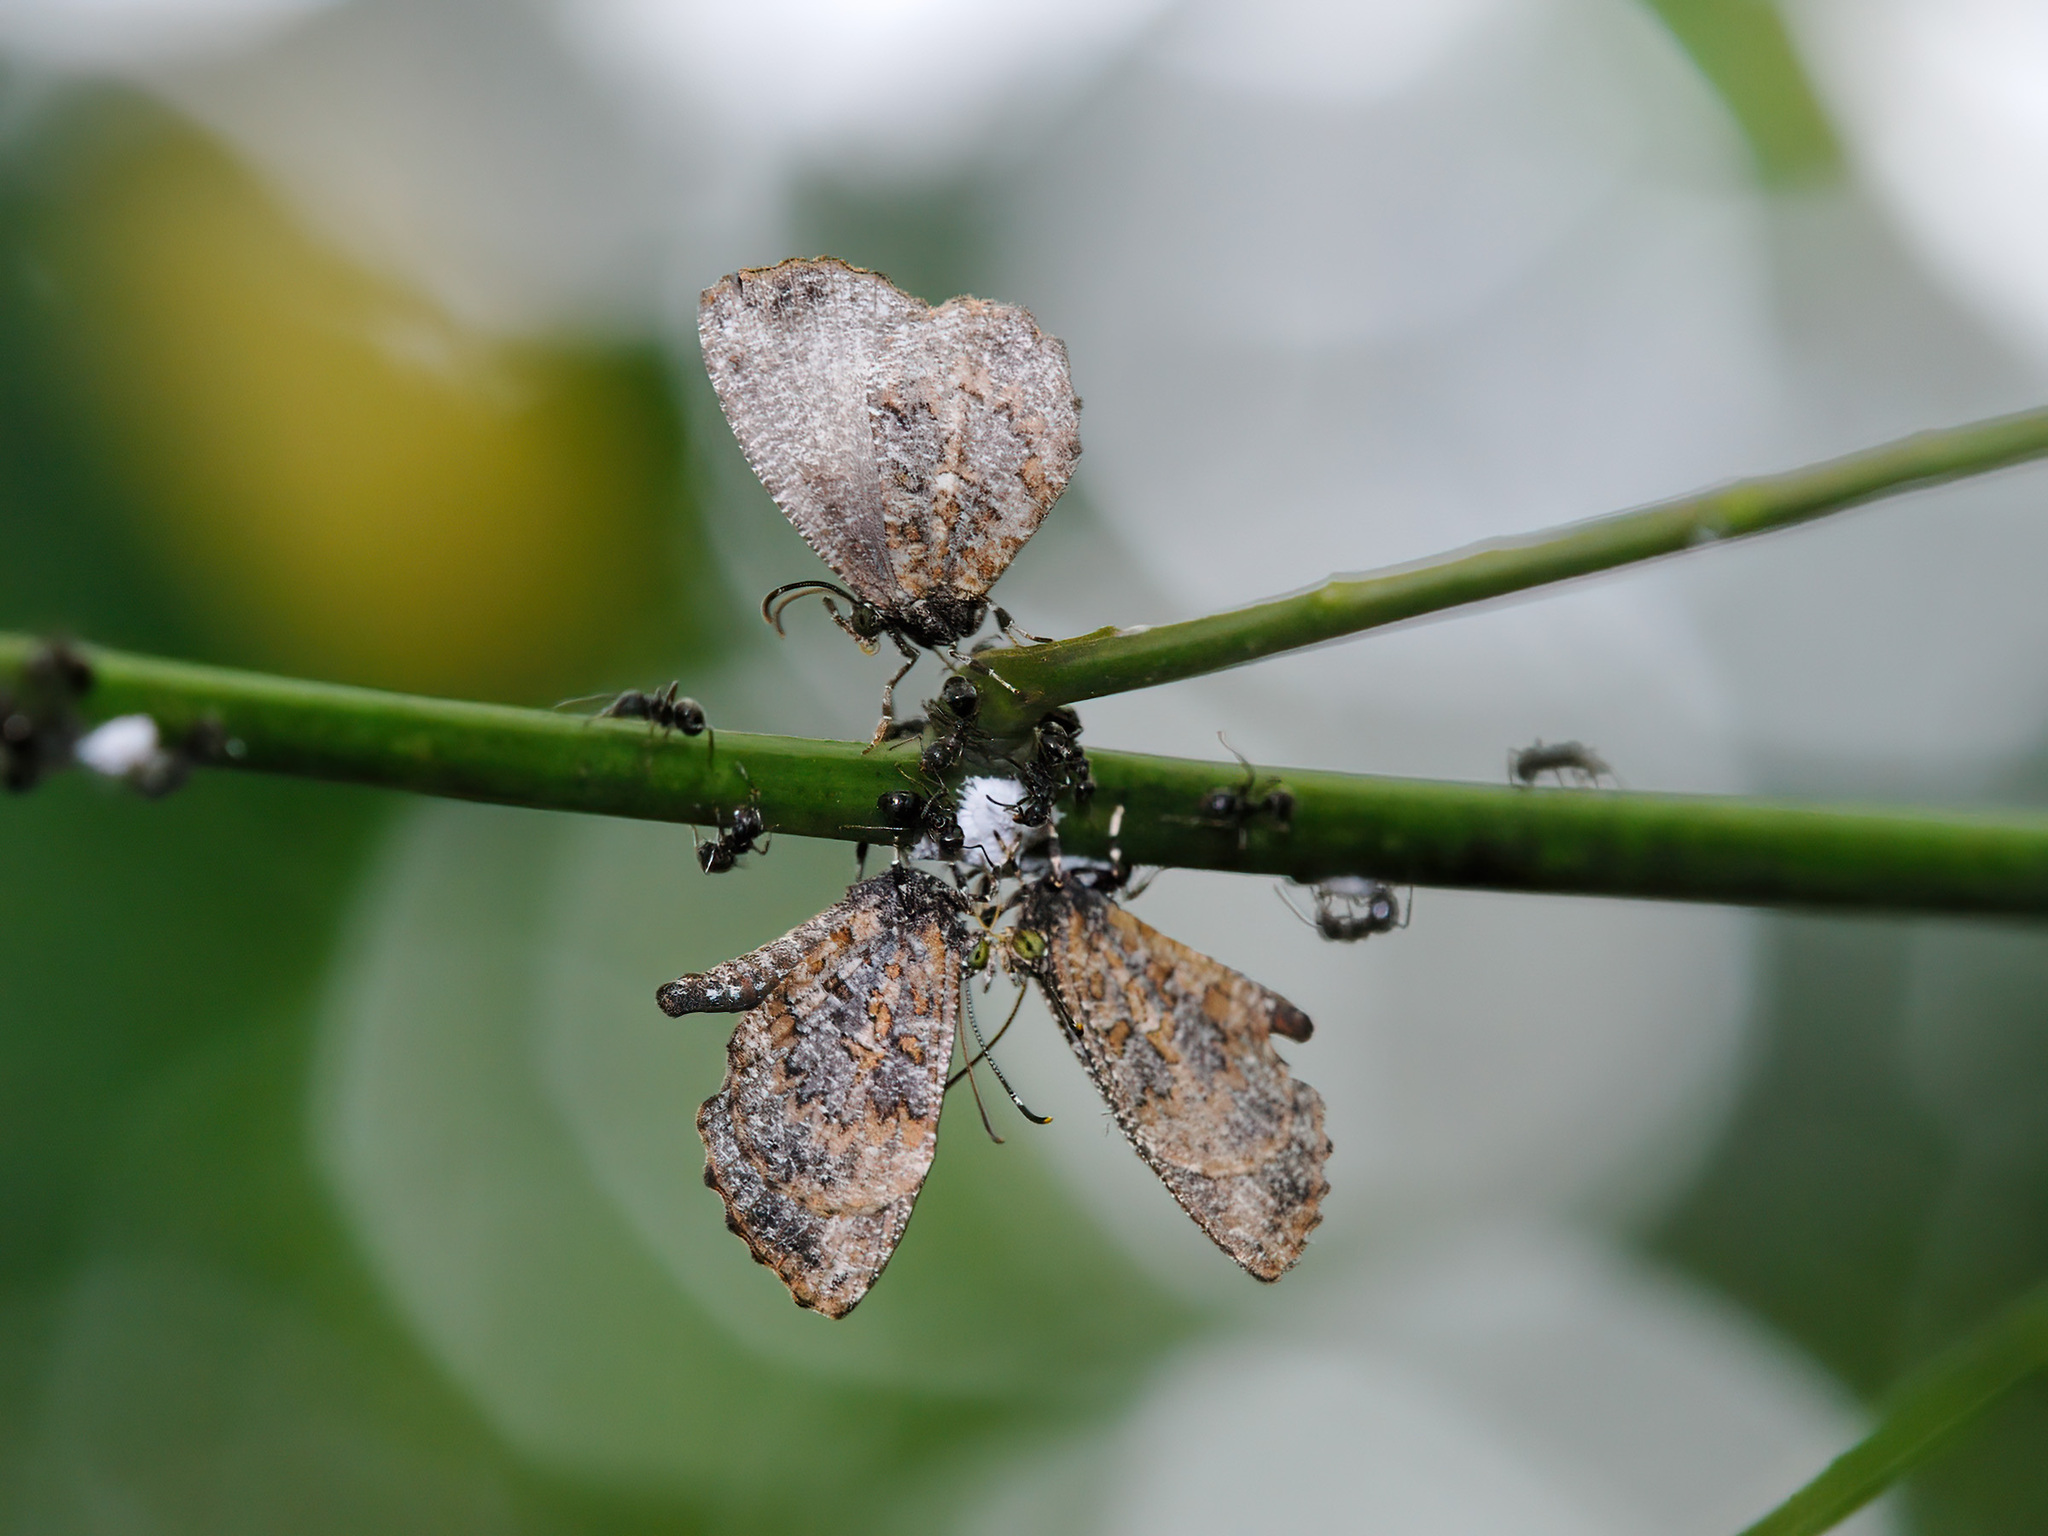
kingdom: Animalia
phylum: Arthropoda
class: Insecta
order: Lepidoptera
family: Lycaenidae
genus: Logania
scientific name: Logania marmorata
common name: Pale mottle
